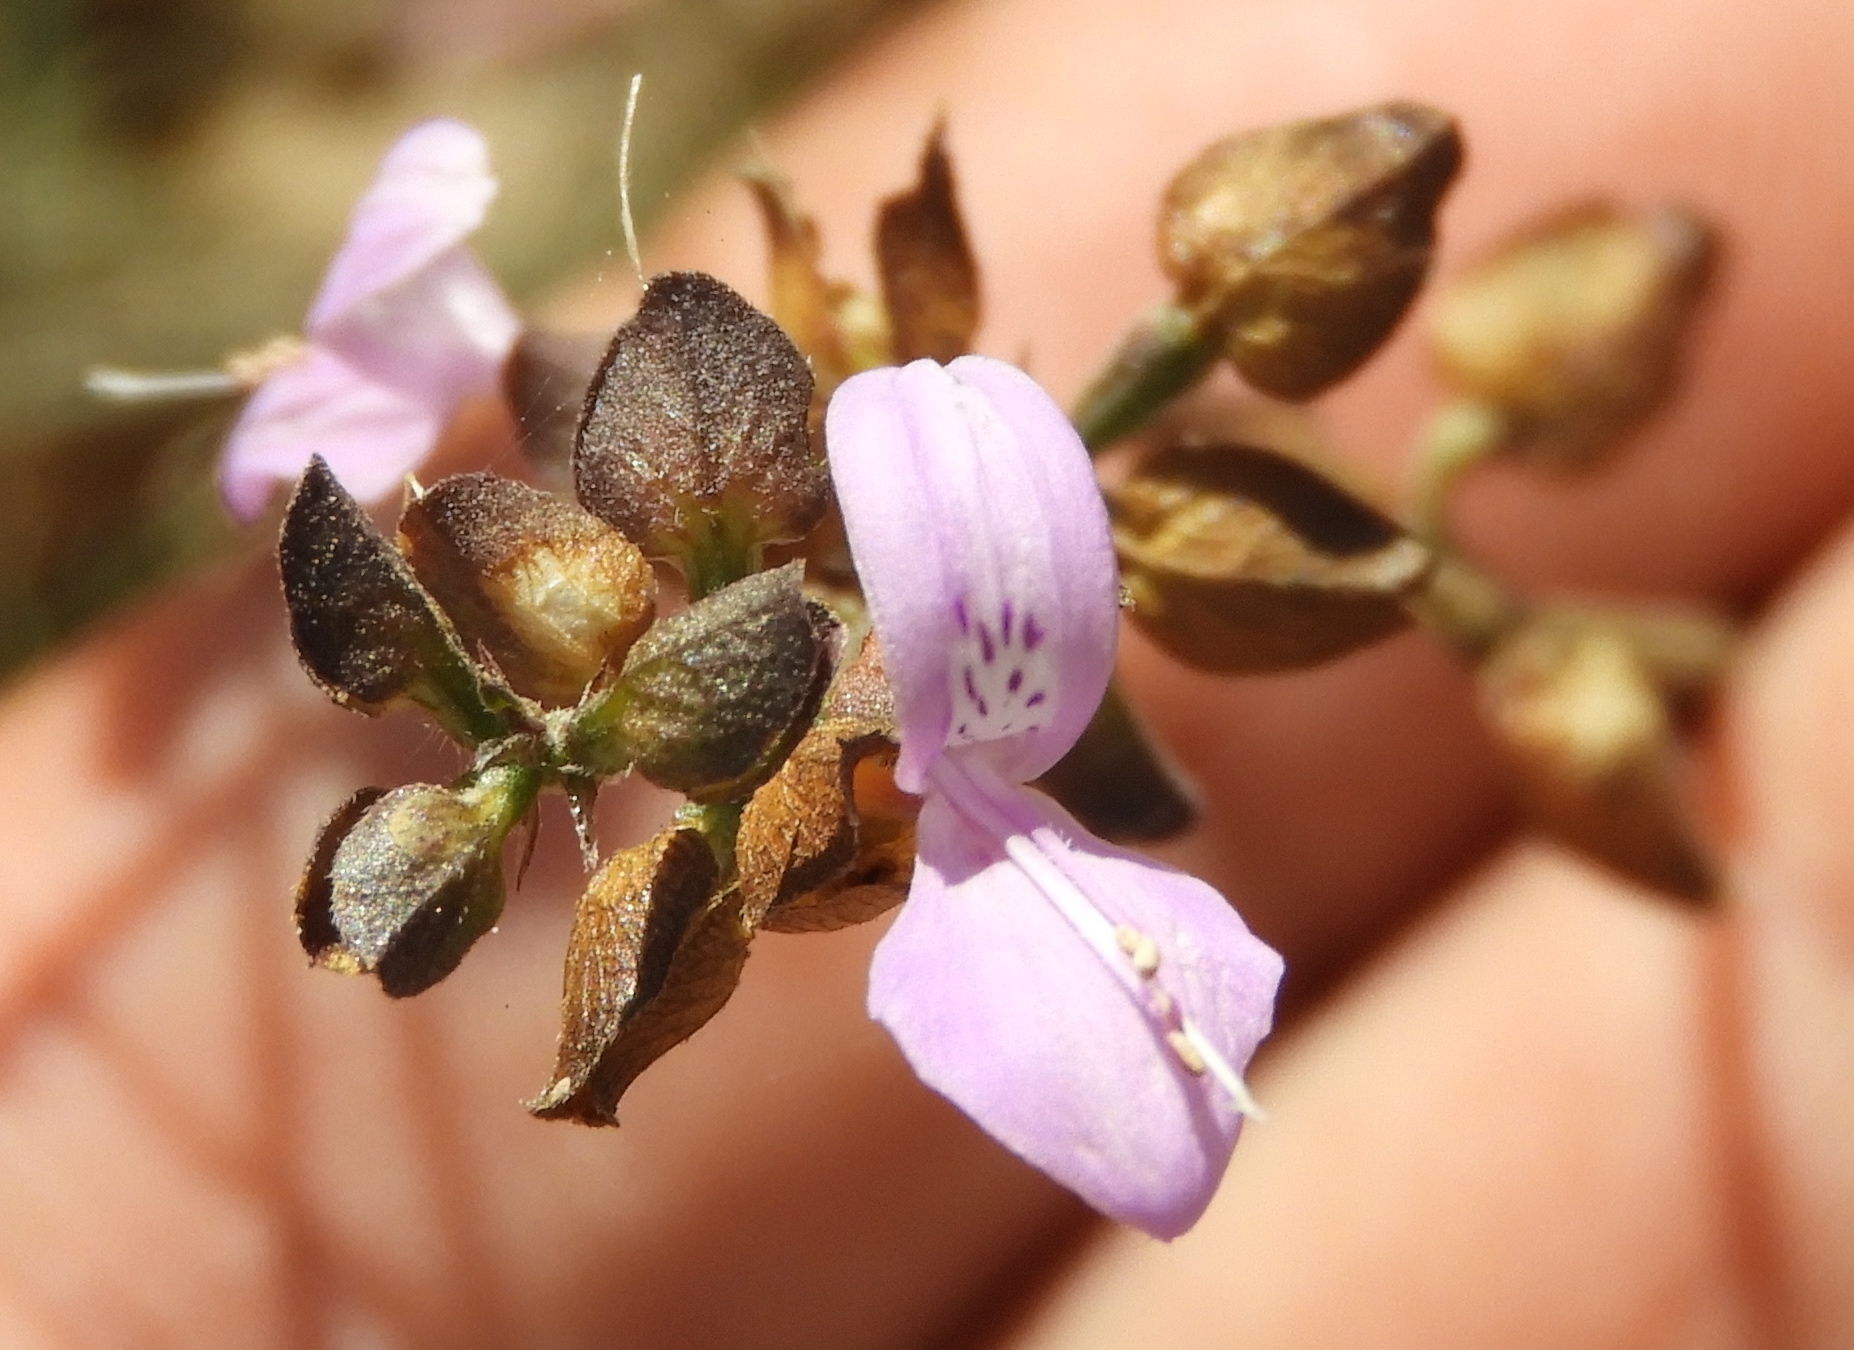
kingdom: Plantae
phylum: Tracheophyta
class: Magnoliopsida
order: Lamiales
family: Acanthaceae
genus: Dicliptera
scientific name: Dicliptera resupinata
